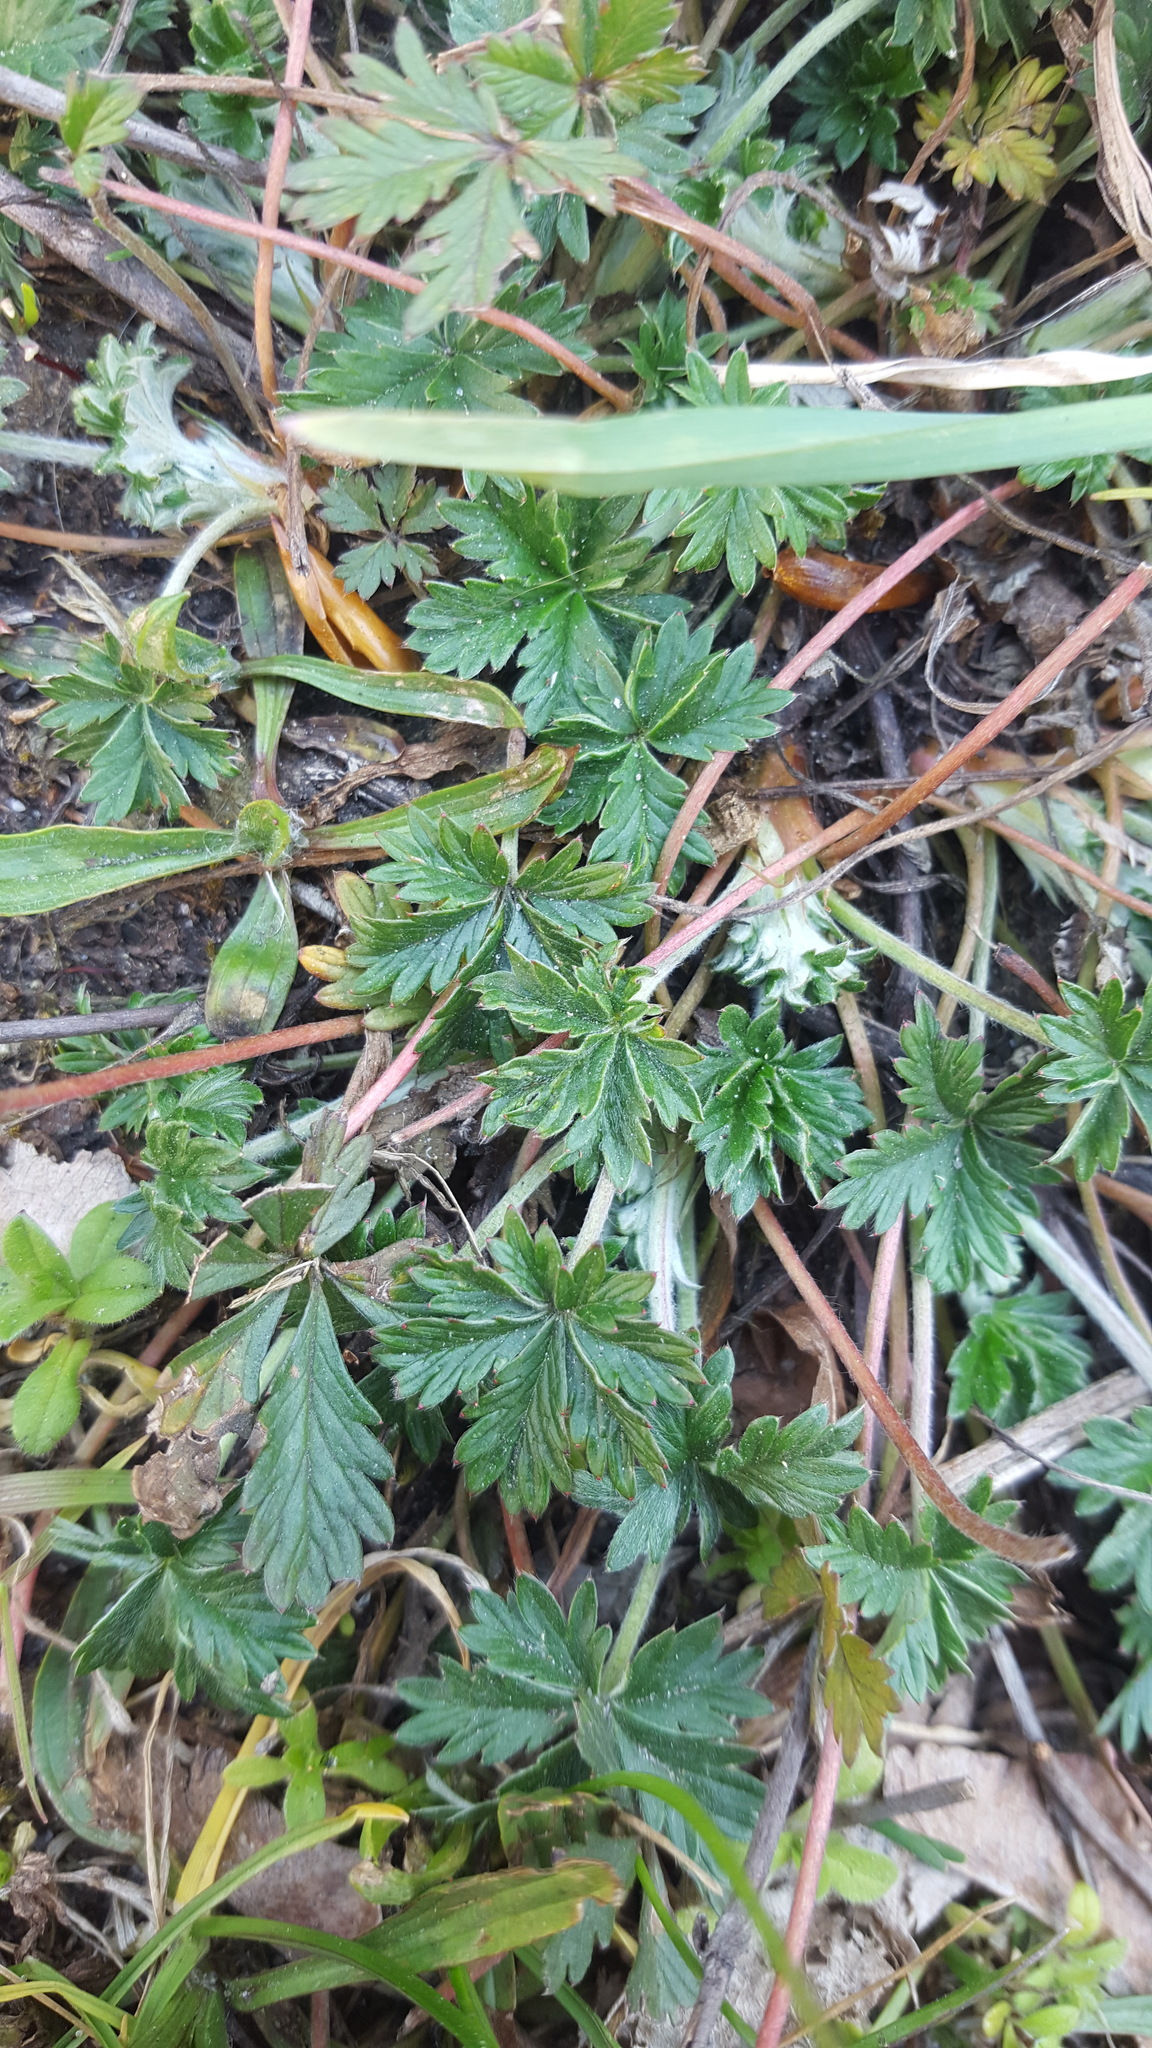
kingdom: Plantae
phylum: Tracheophyta
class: Magnoliopsida
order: Rosales
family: Rosaceae
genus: Potentilla
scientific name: Potentilla argentea
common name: Hoary cinquefoil
